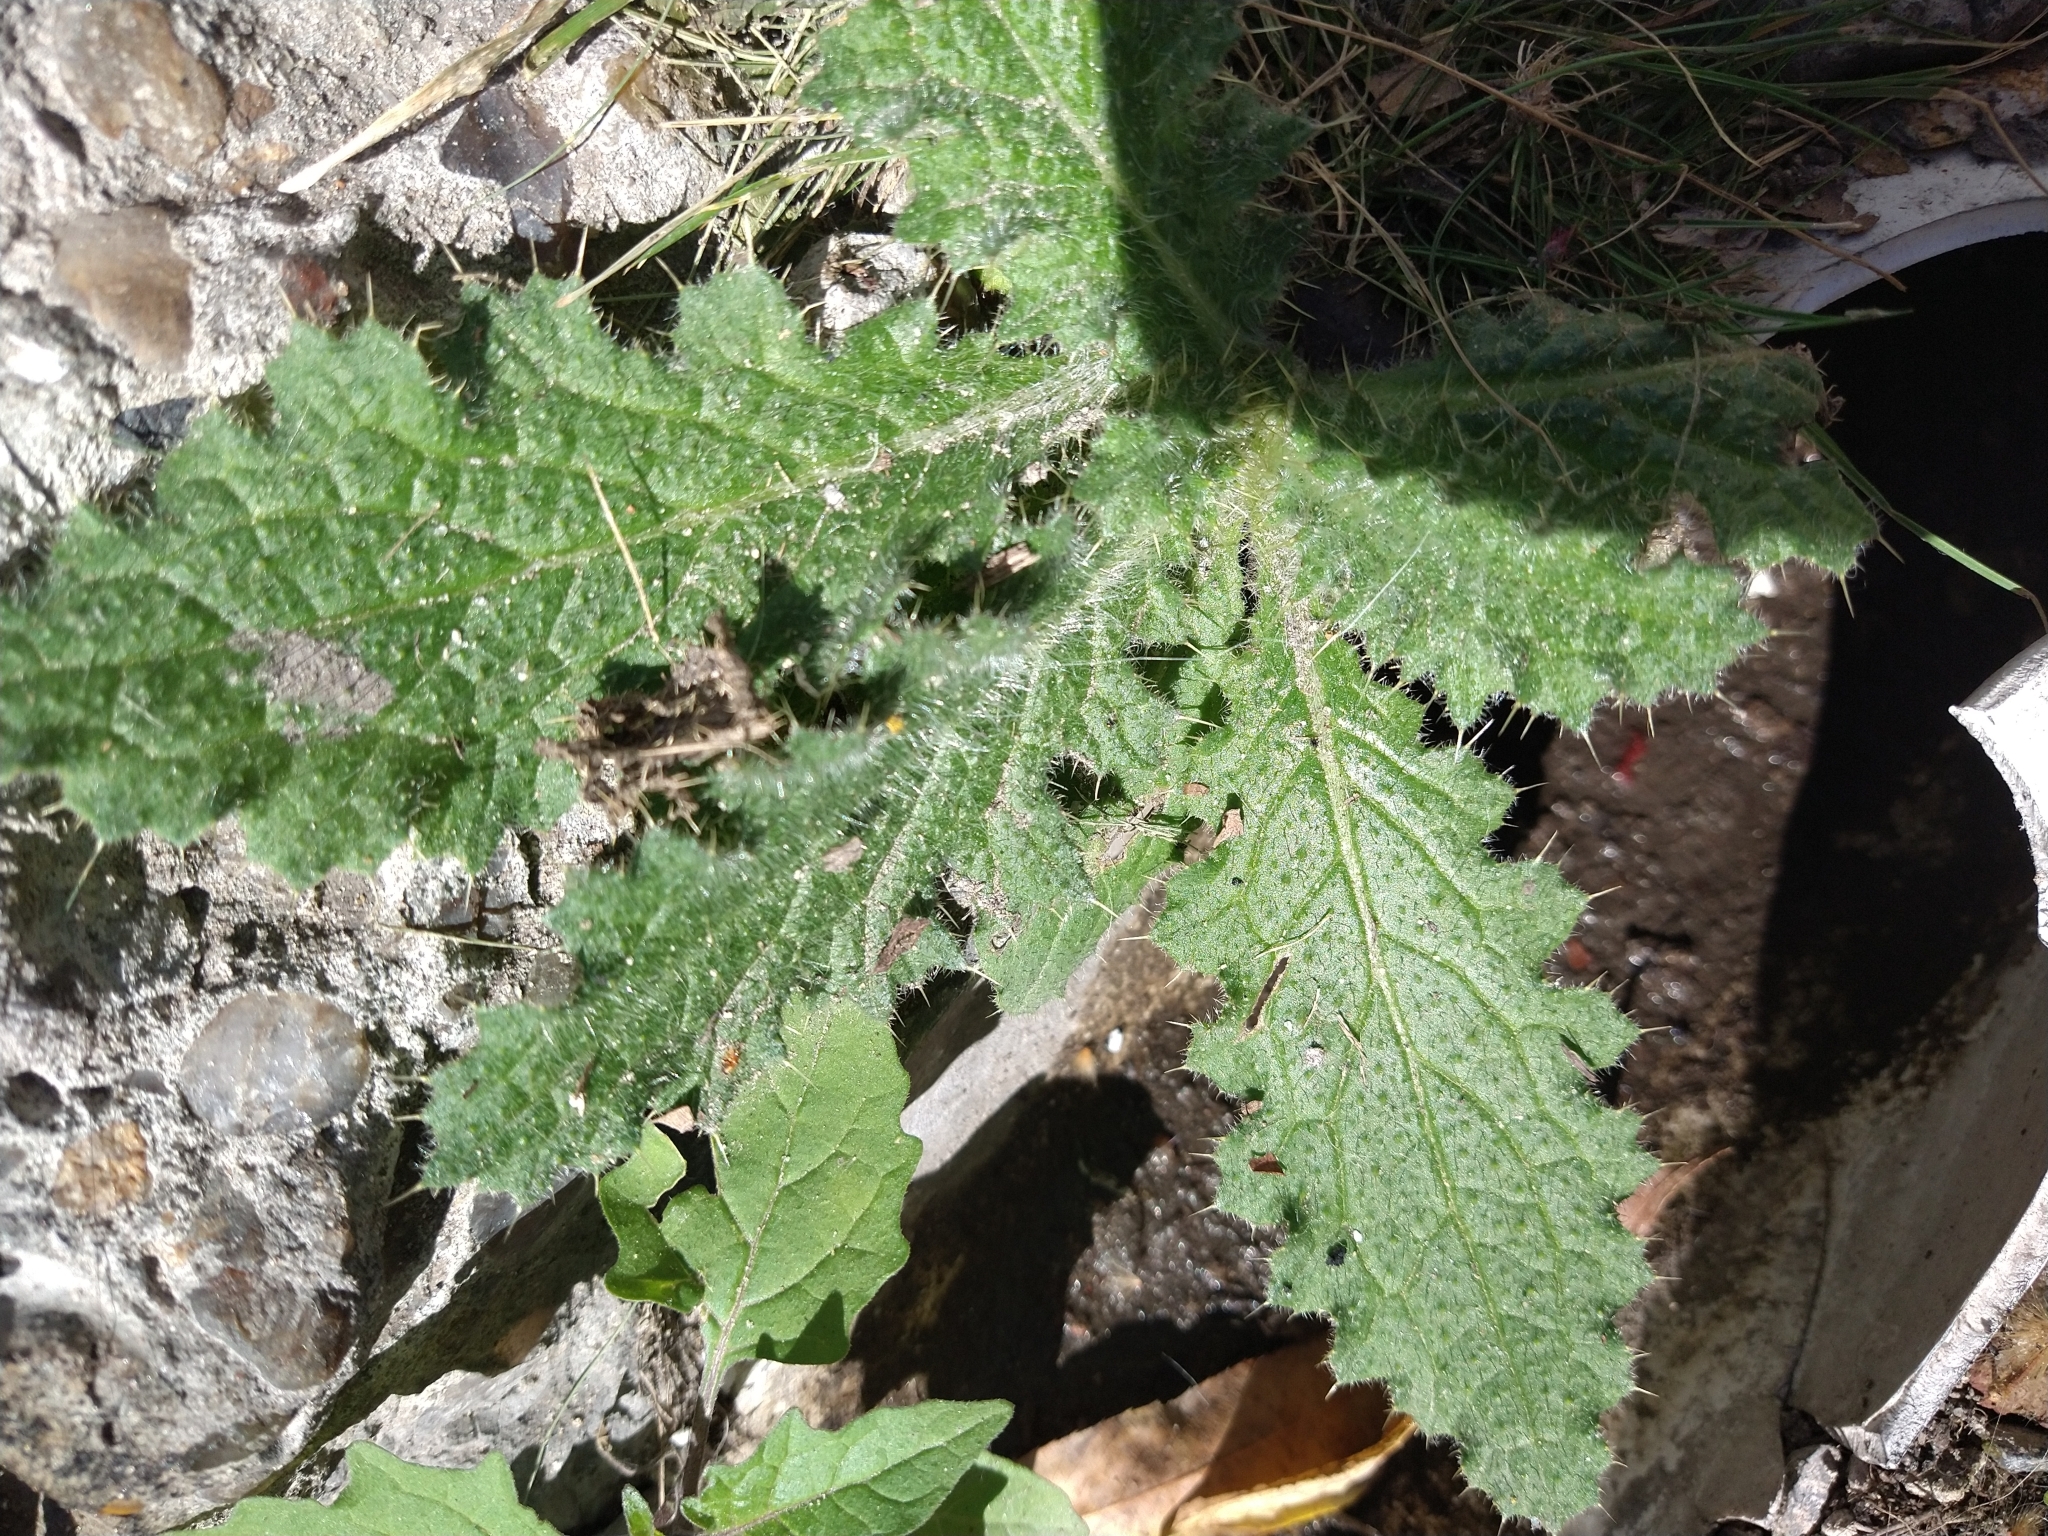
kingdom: Plantae
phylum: Tracheophyta
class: Magnoliopsida
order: Asterales
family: Asteraceae
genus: Cirsium
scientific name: Cirsium vulgare
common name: Bull thistle
